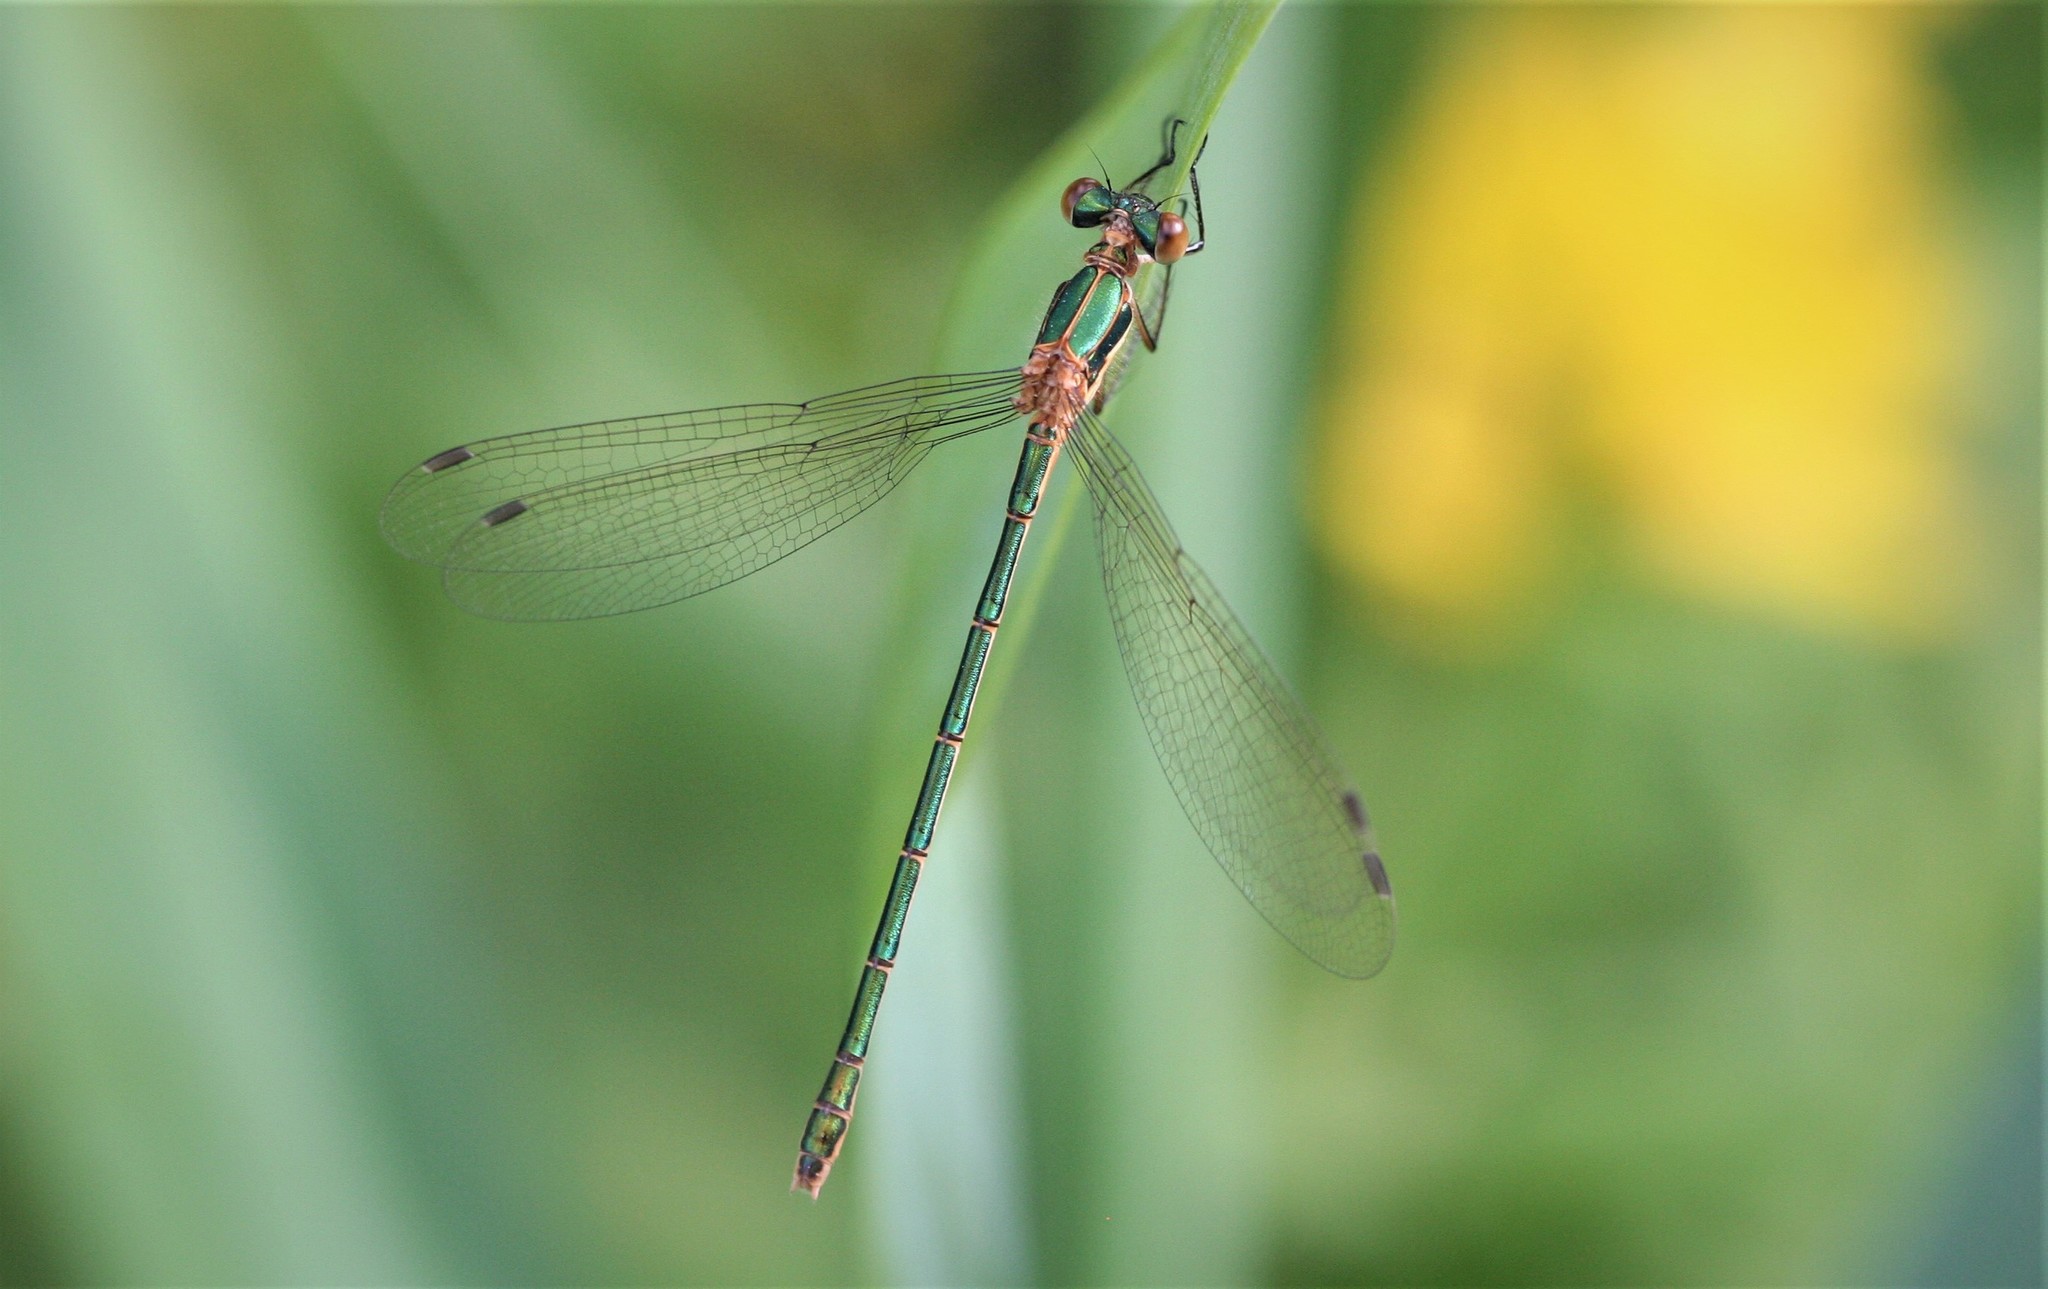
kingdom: Animalia
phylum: Arthropoda
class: Insecta
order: Odonata
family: Lestidae
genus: Lestes
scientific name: Lestes sponsa
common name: Common spreadwing
